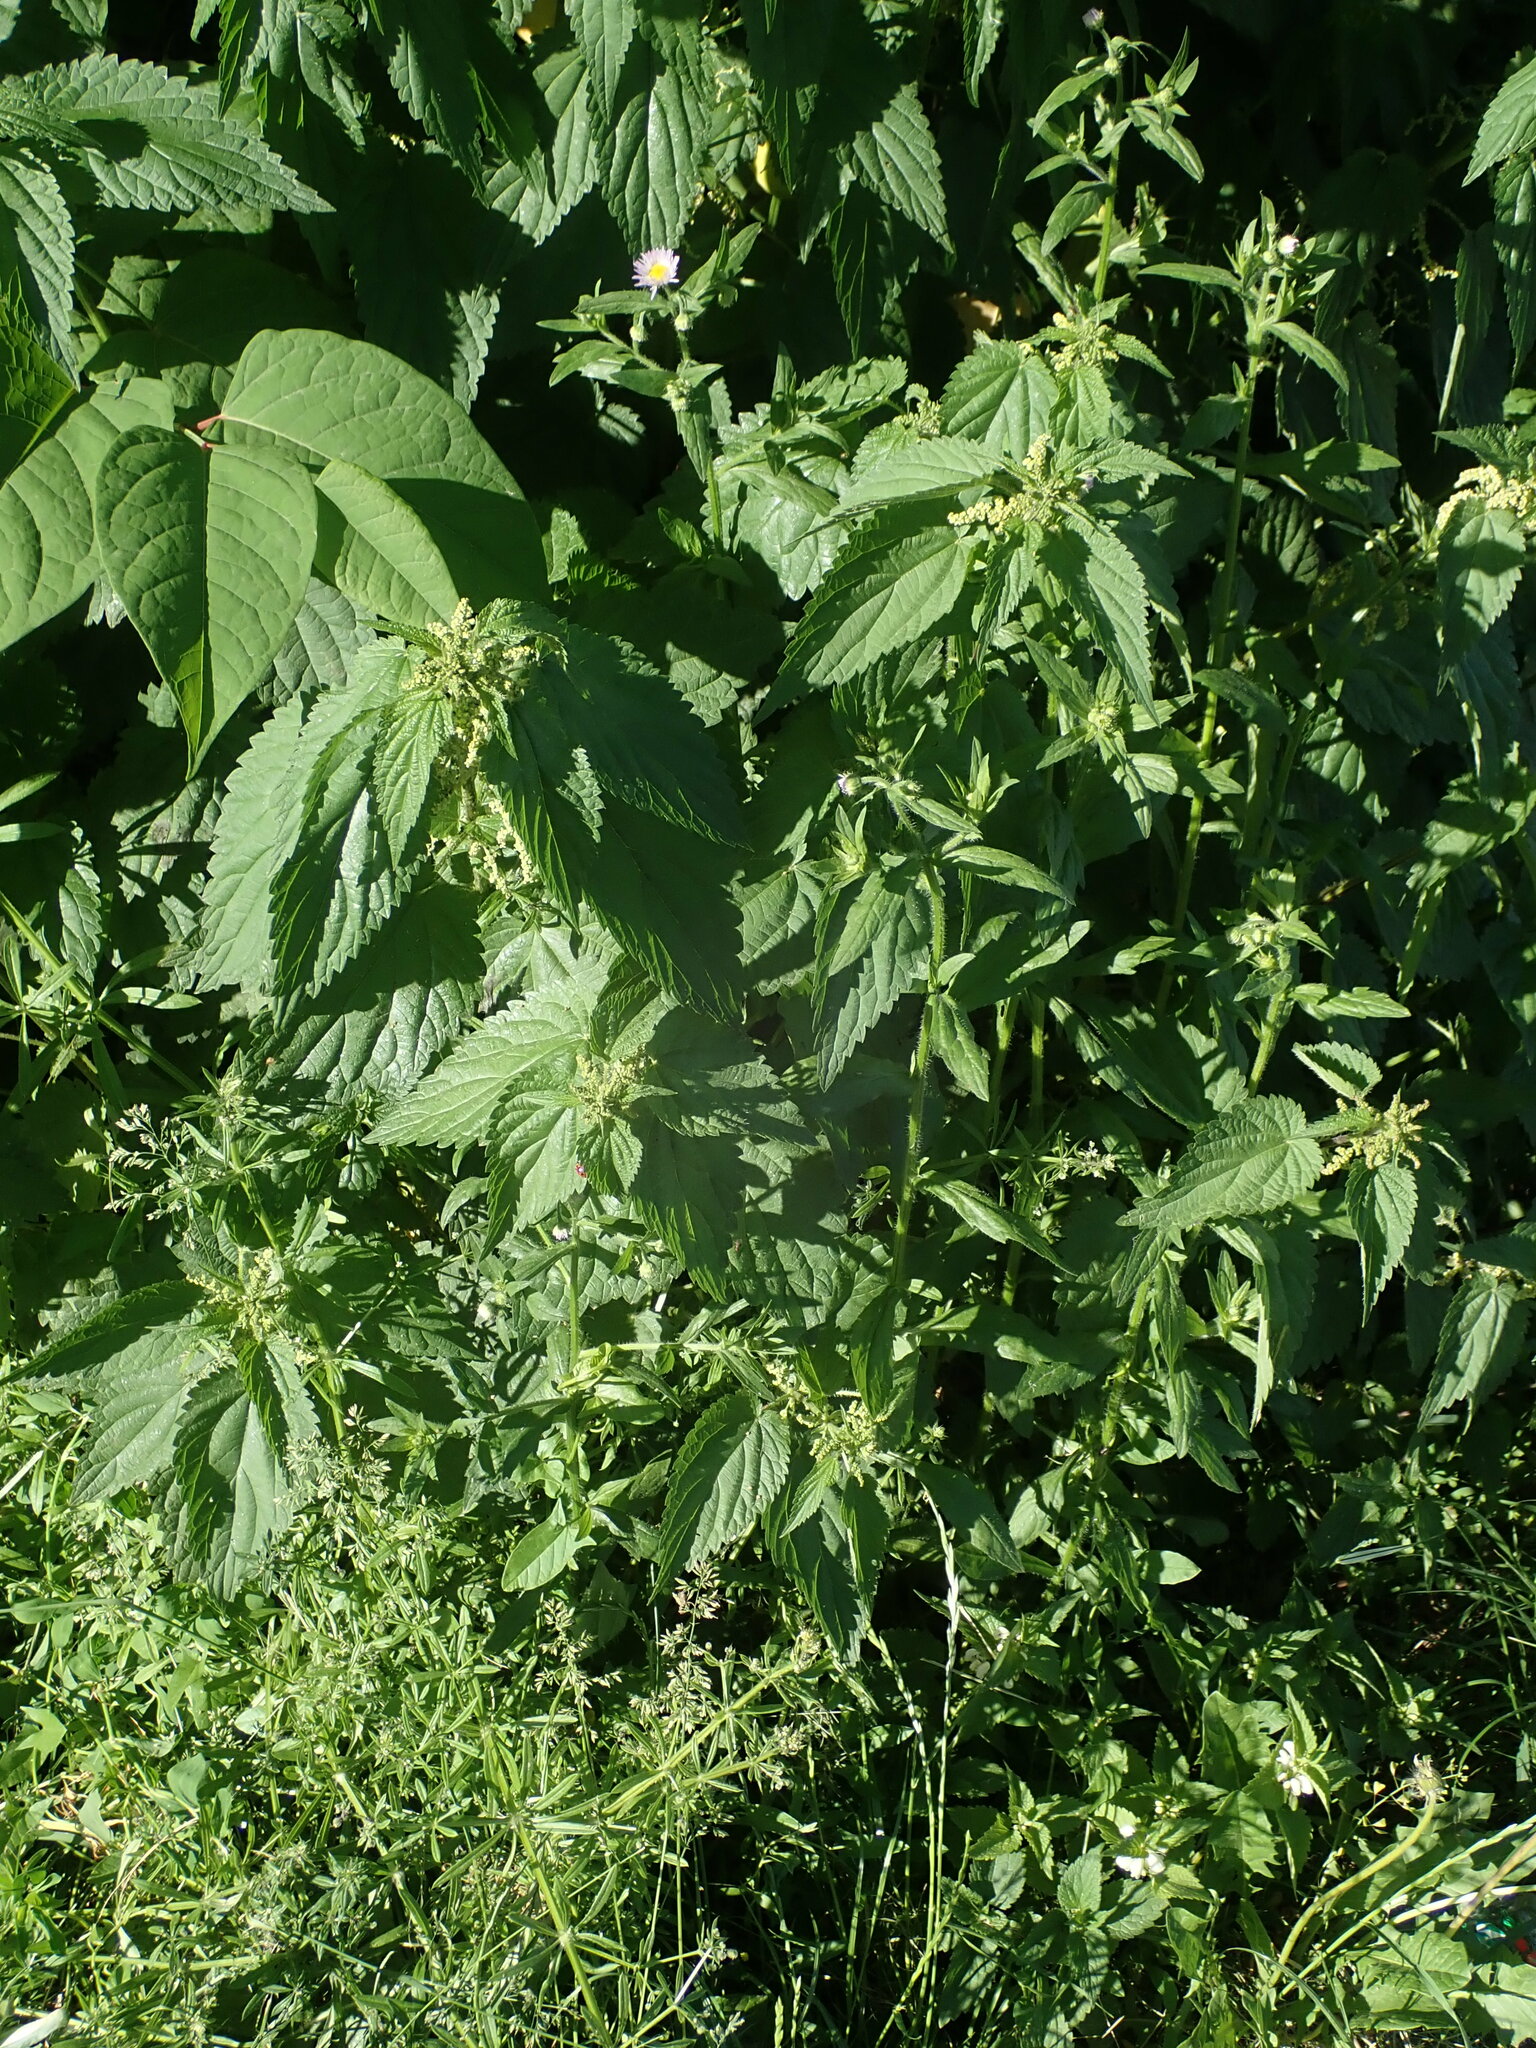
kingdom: Plantae
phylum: Tracheophyta
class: Magnoliopsida
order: Rosales
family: Urticaceae
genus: Urtica
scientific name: Urtica dioica
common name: Common nettle
